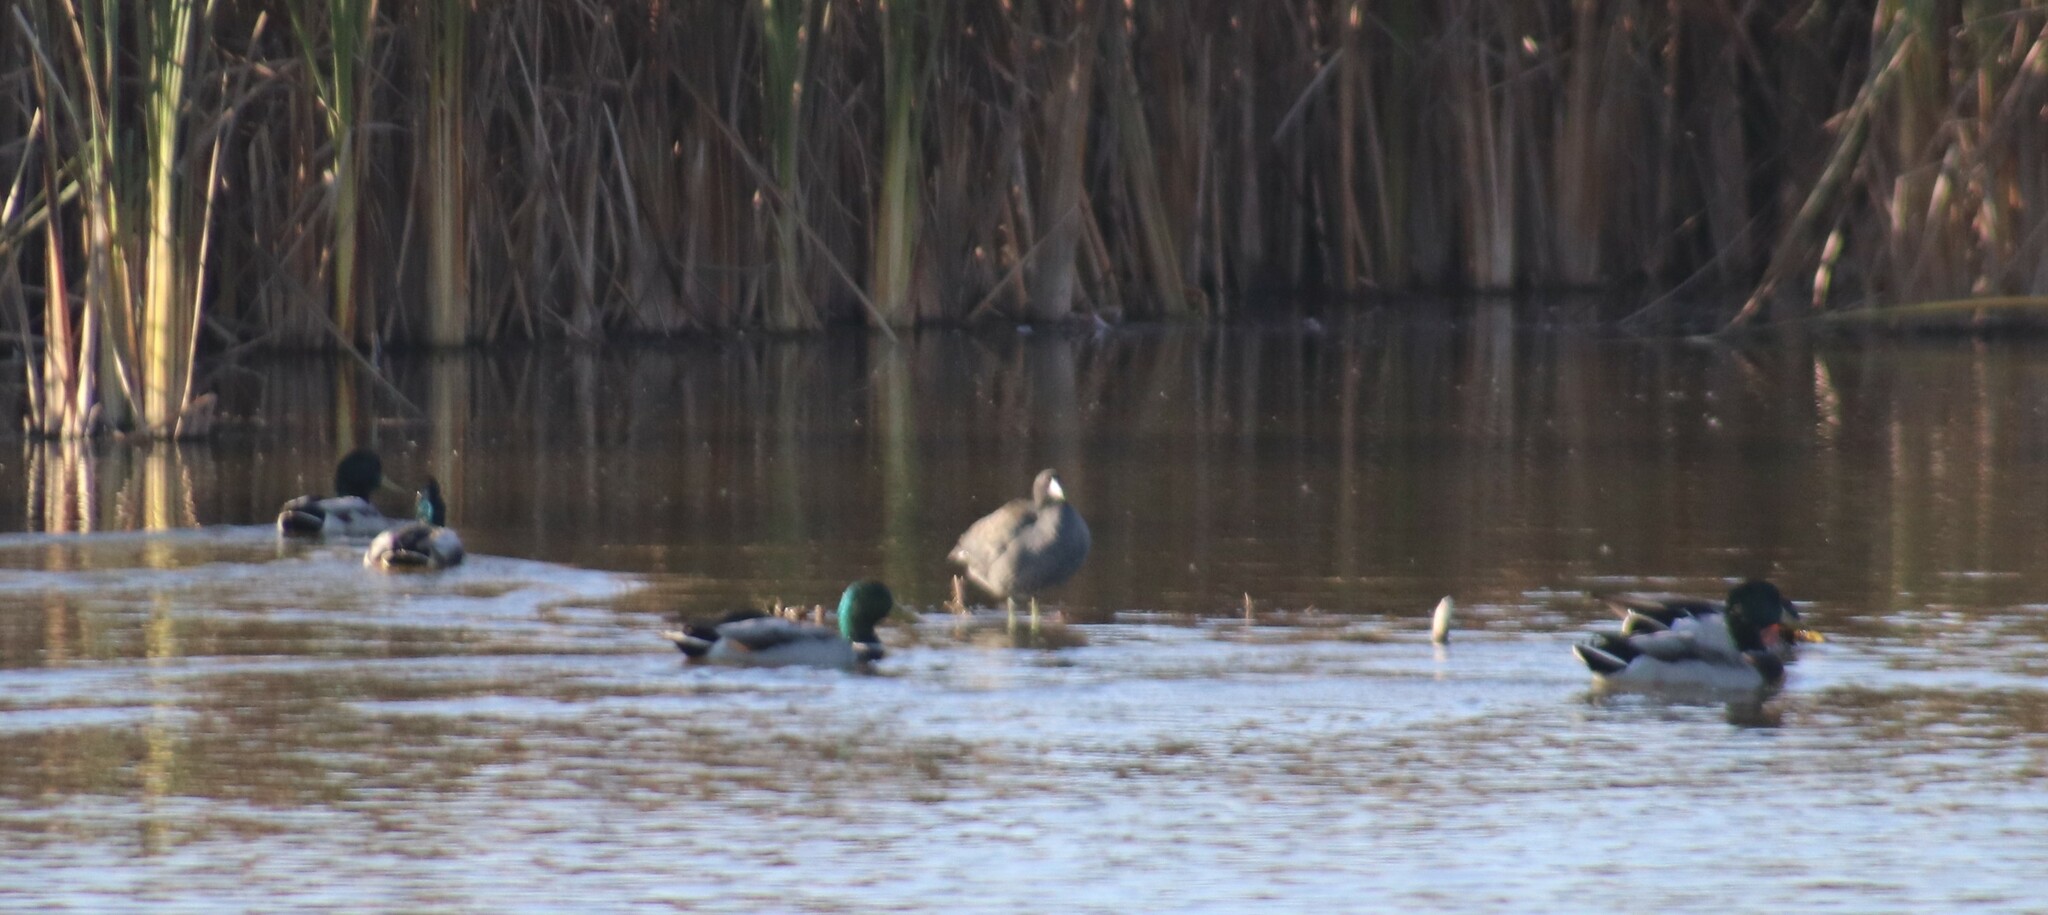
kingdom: Animalia
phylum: Chordata
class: Aves
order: Anseriformes
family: Anatidae
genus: Anas
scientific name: Anas platyrhynchos
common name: Mallard
